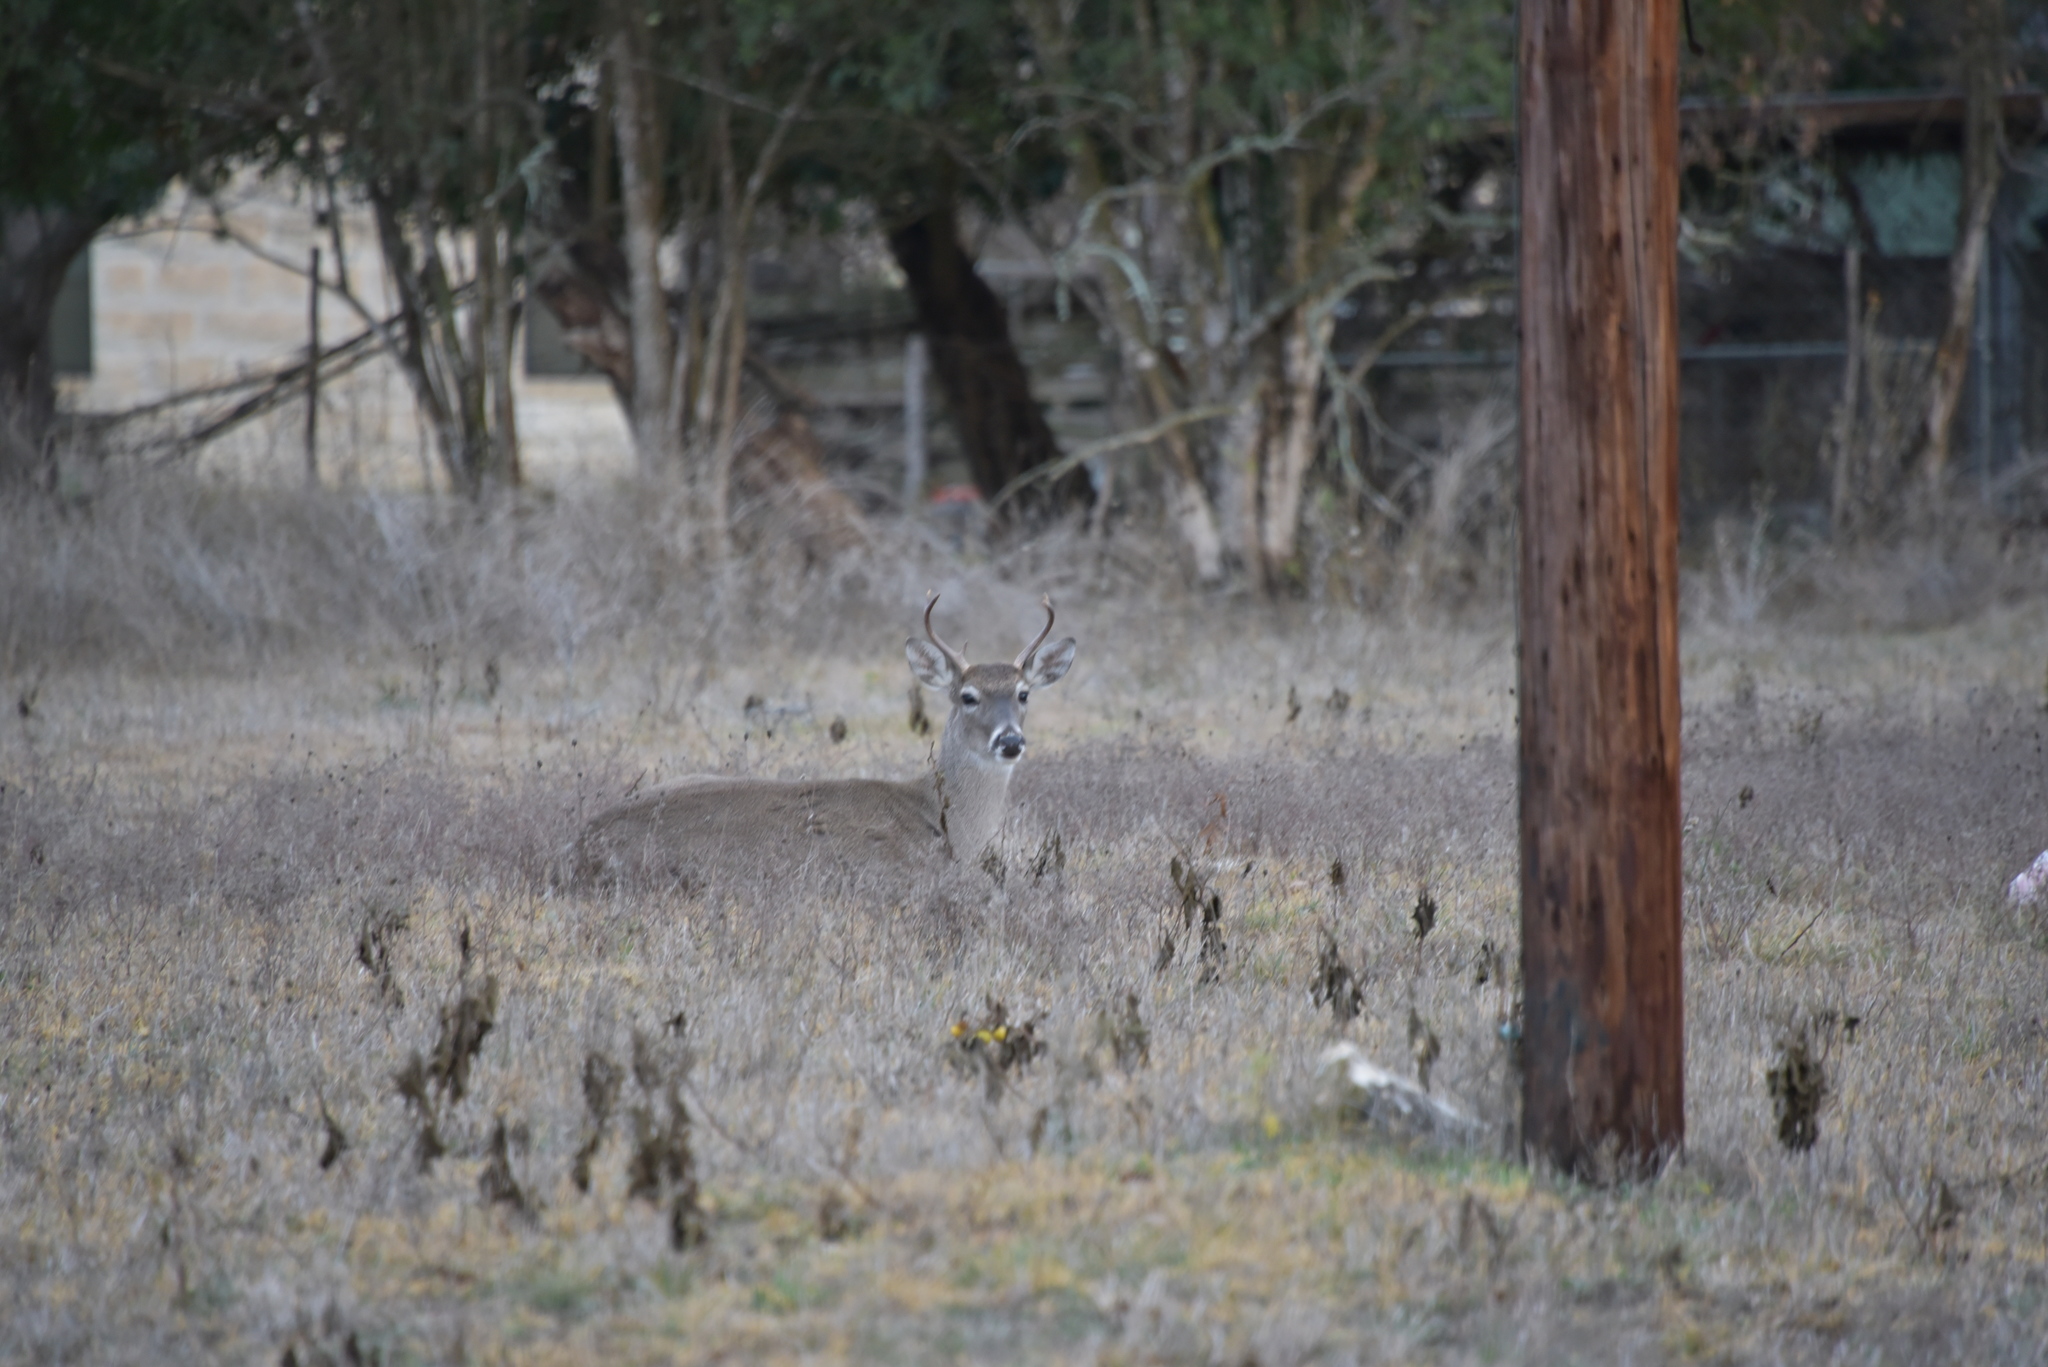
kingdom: Animalia
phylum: Chordata
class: Mammalia
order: Artiodactyla
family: Cervidae
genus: Odocoileus
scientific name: Odocoileus virginianus
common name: White-tailed deer
